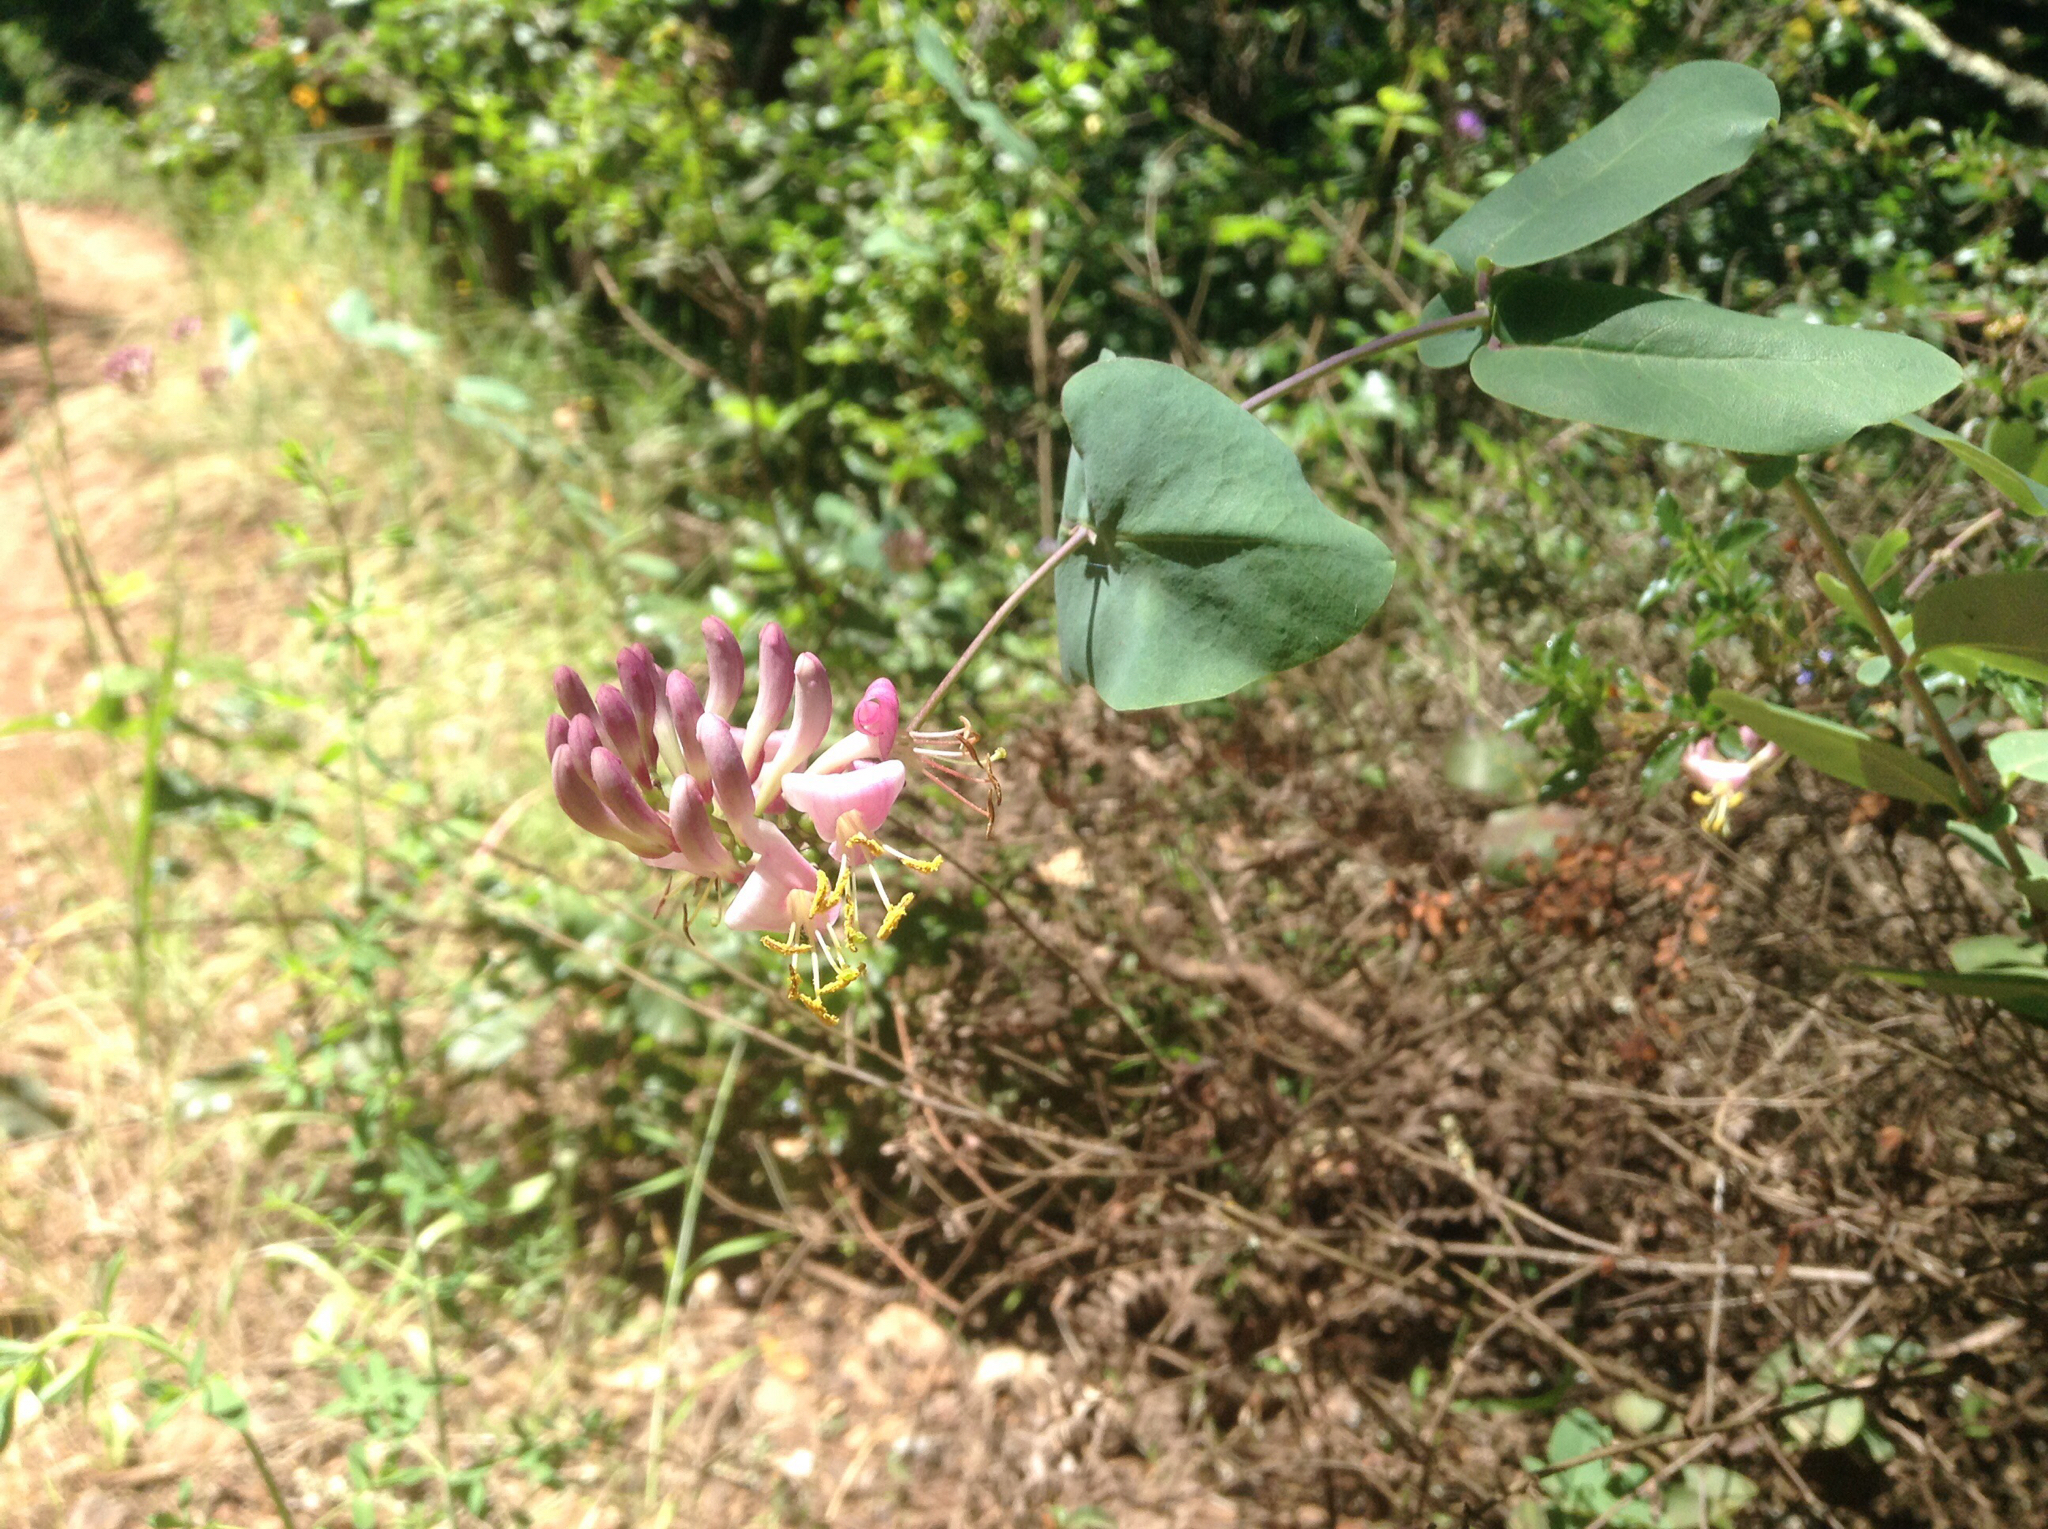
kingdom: Plantae
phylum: Tracheophyta
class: Magnoliopsida
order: Dipsacales
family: Caprifoliaceae
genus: Lonicera
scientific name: Lonicera hispidula
